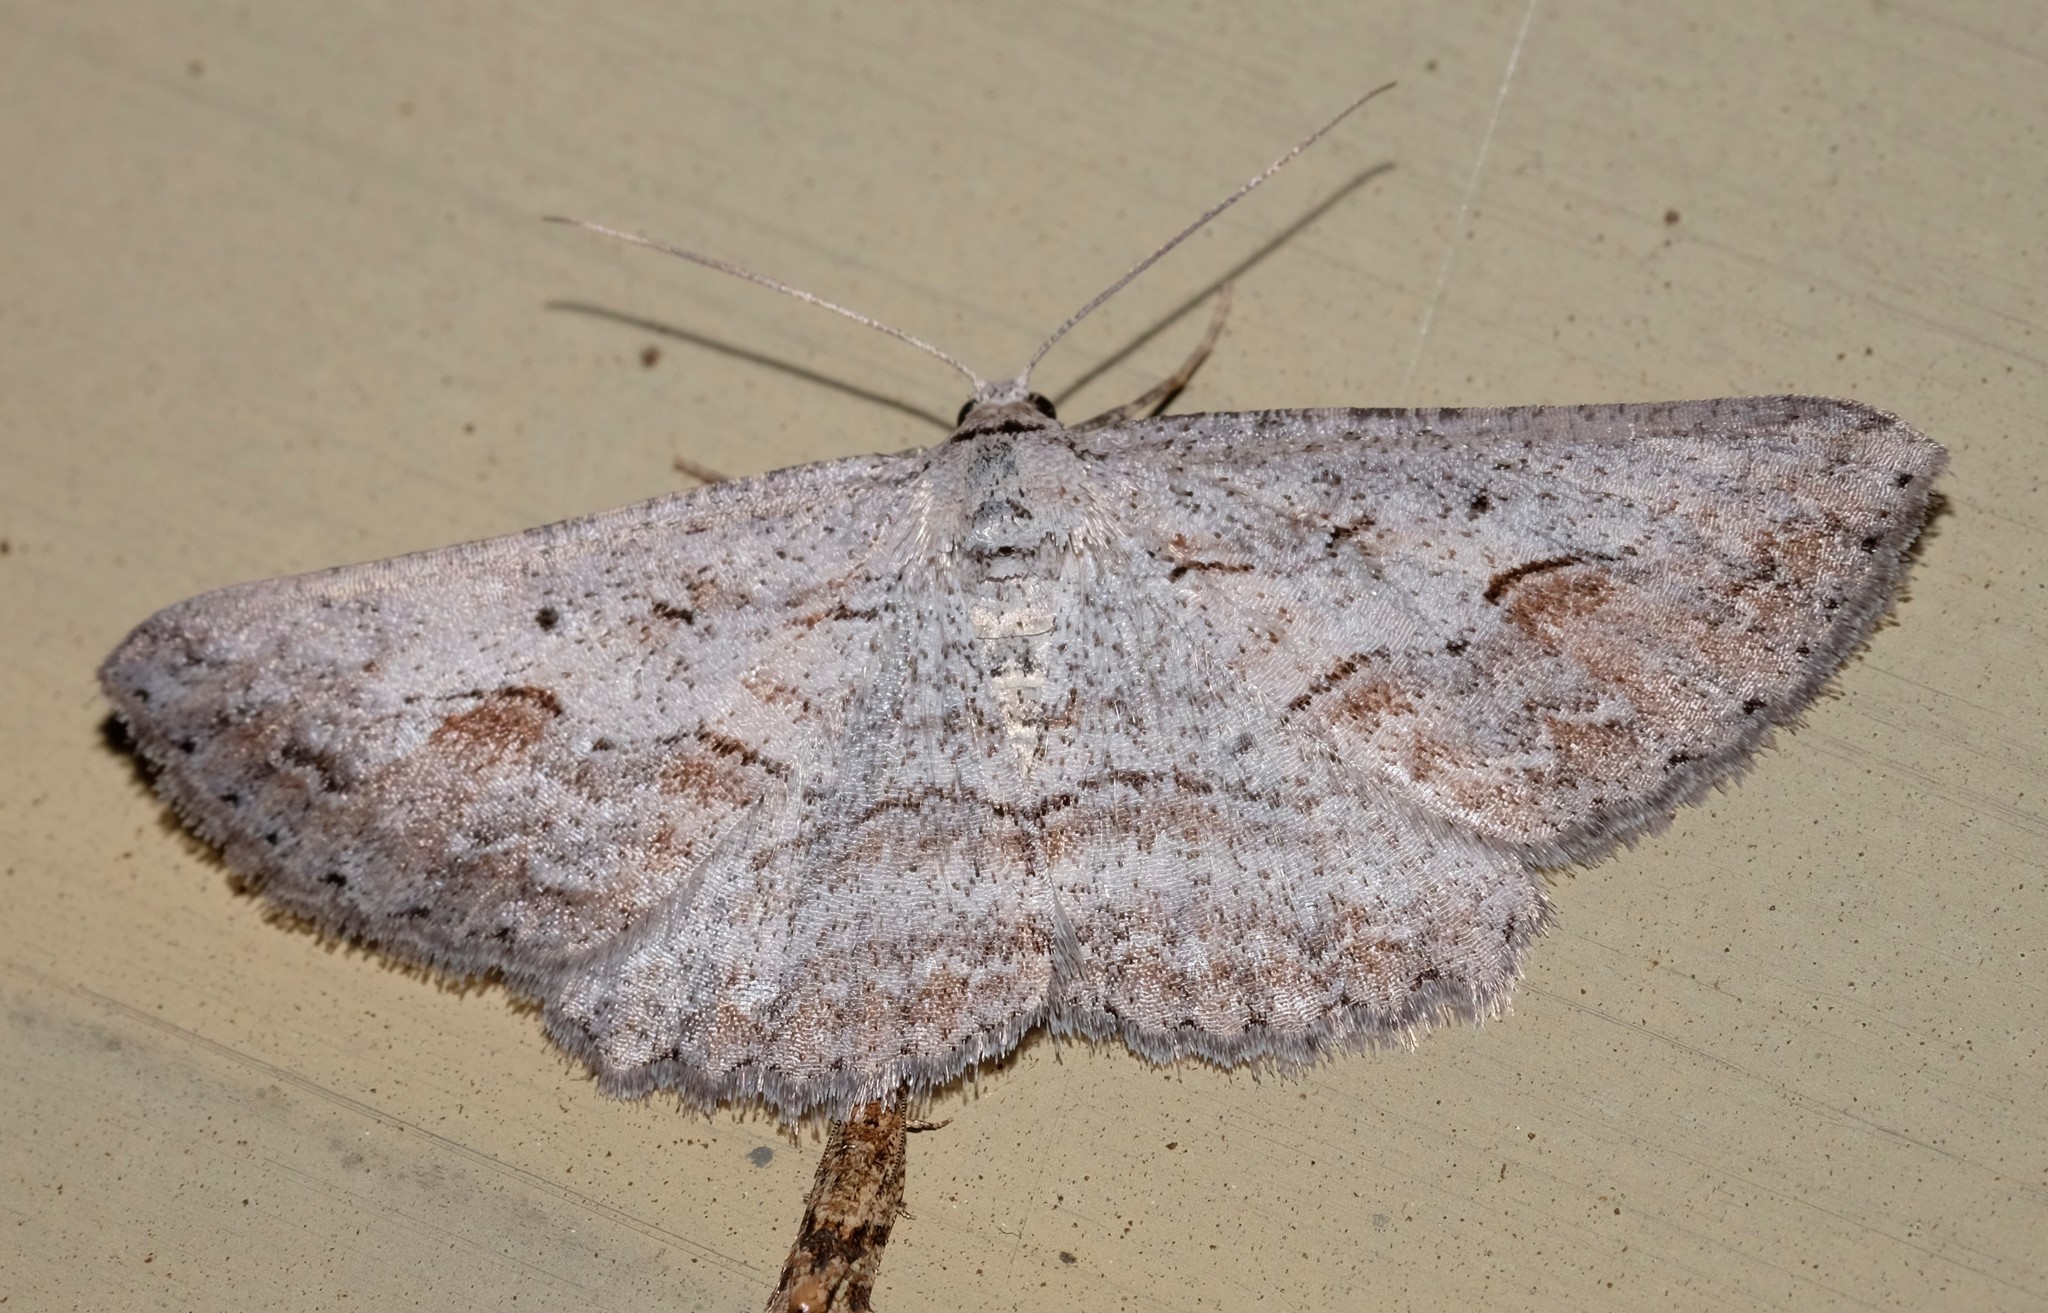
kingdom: Animalia
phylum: Arthropoda
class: Insecta
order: Lepidoptera
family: Geometridae
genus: Syneora
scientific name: Syneora mundifera
